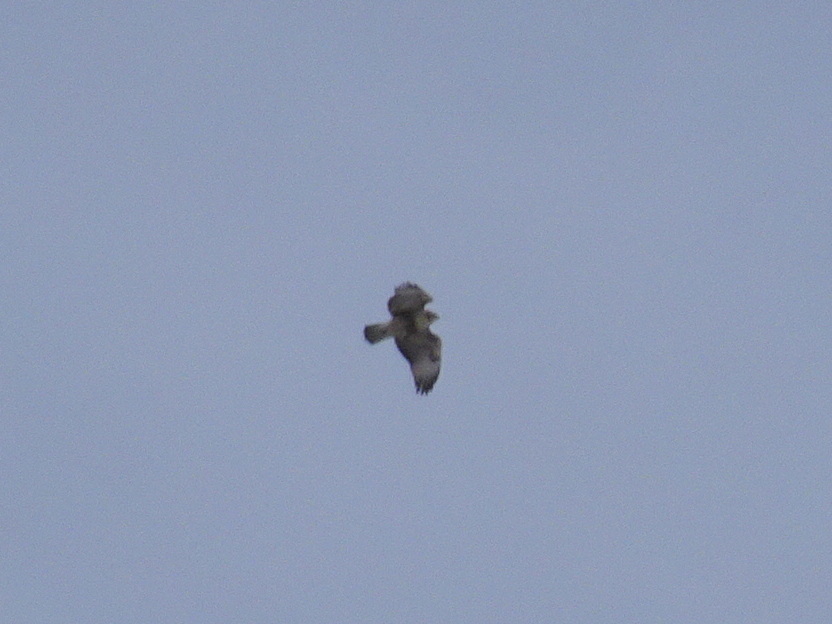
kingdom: Animalia
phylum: Chordata
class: Aves
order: Accipitriformes
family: Accipitridae
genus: Buteo
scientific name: Buteo jamaicensis
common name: Red-tailed hawk
